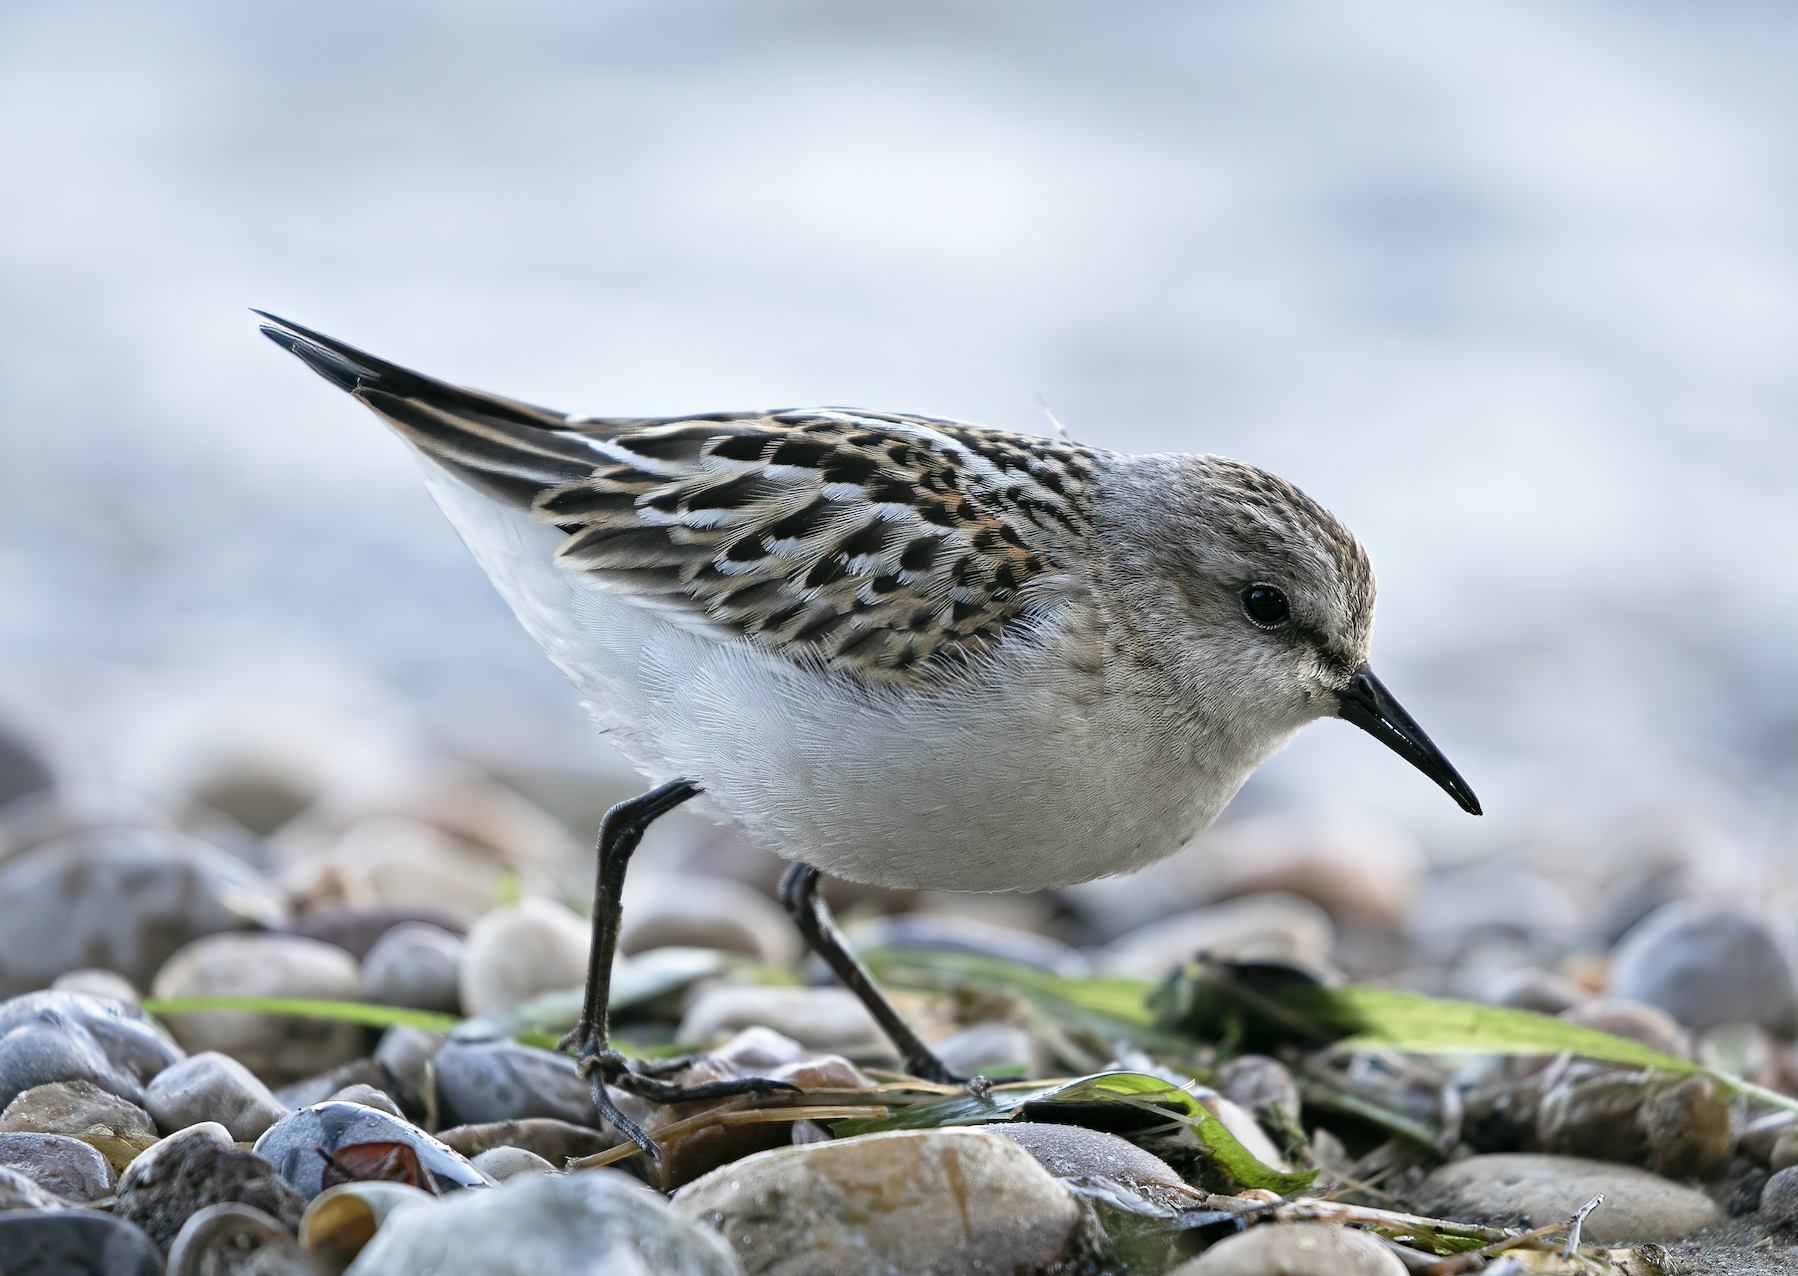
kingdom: Animalia
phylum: Chordata
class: Aves
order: Charadriiformes
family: Scolopacidae
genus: Calidris
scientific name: Calidris minuta
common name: Little stint
